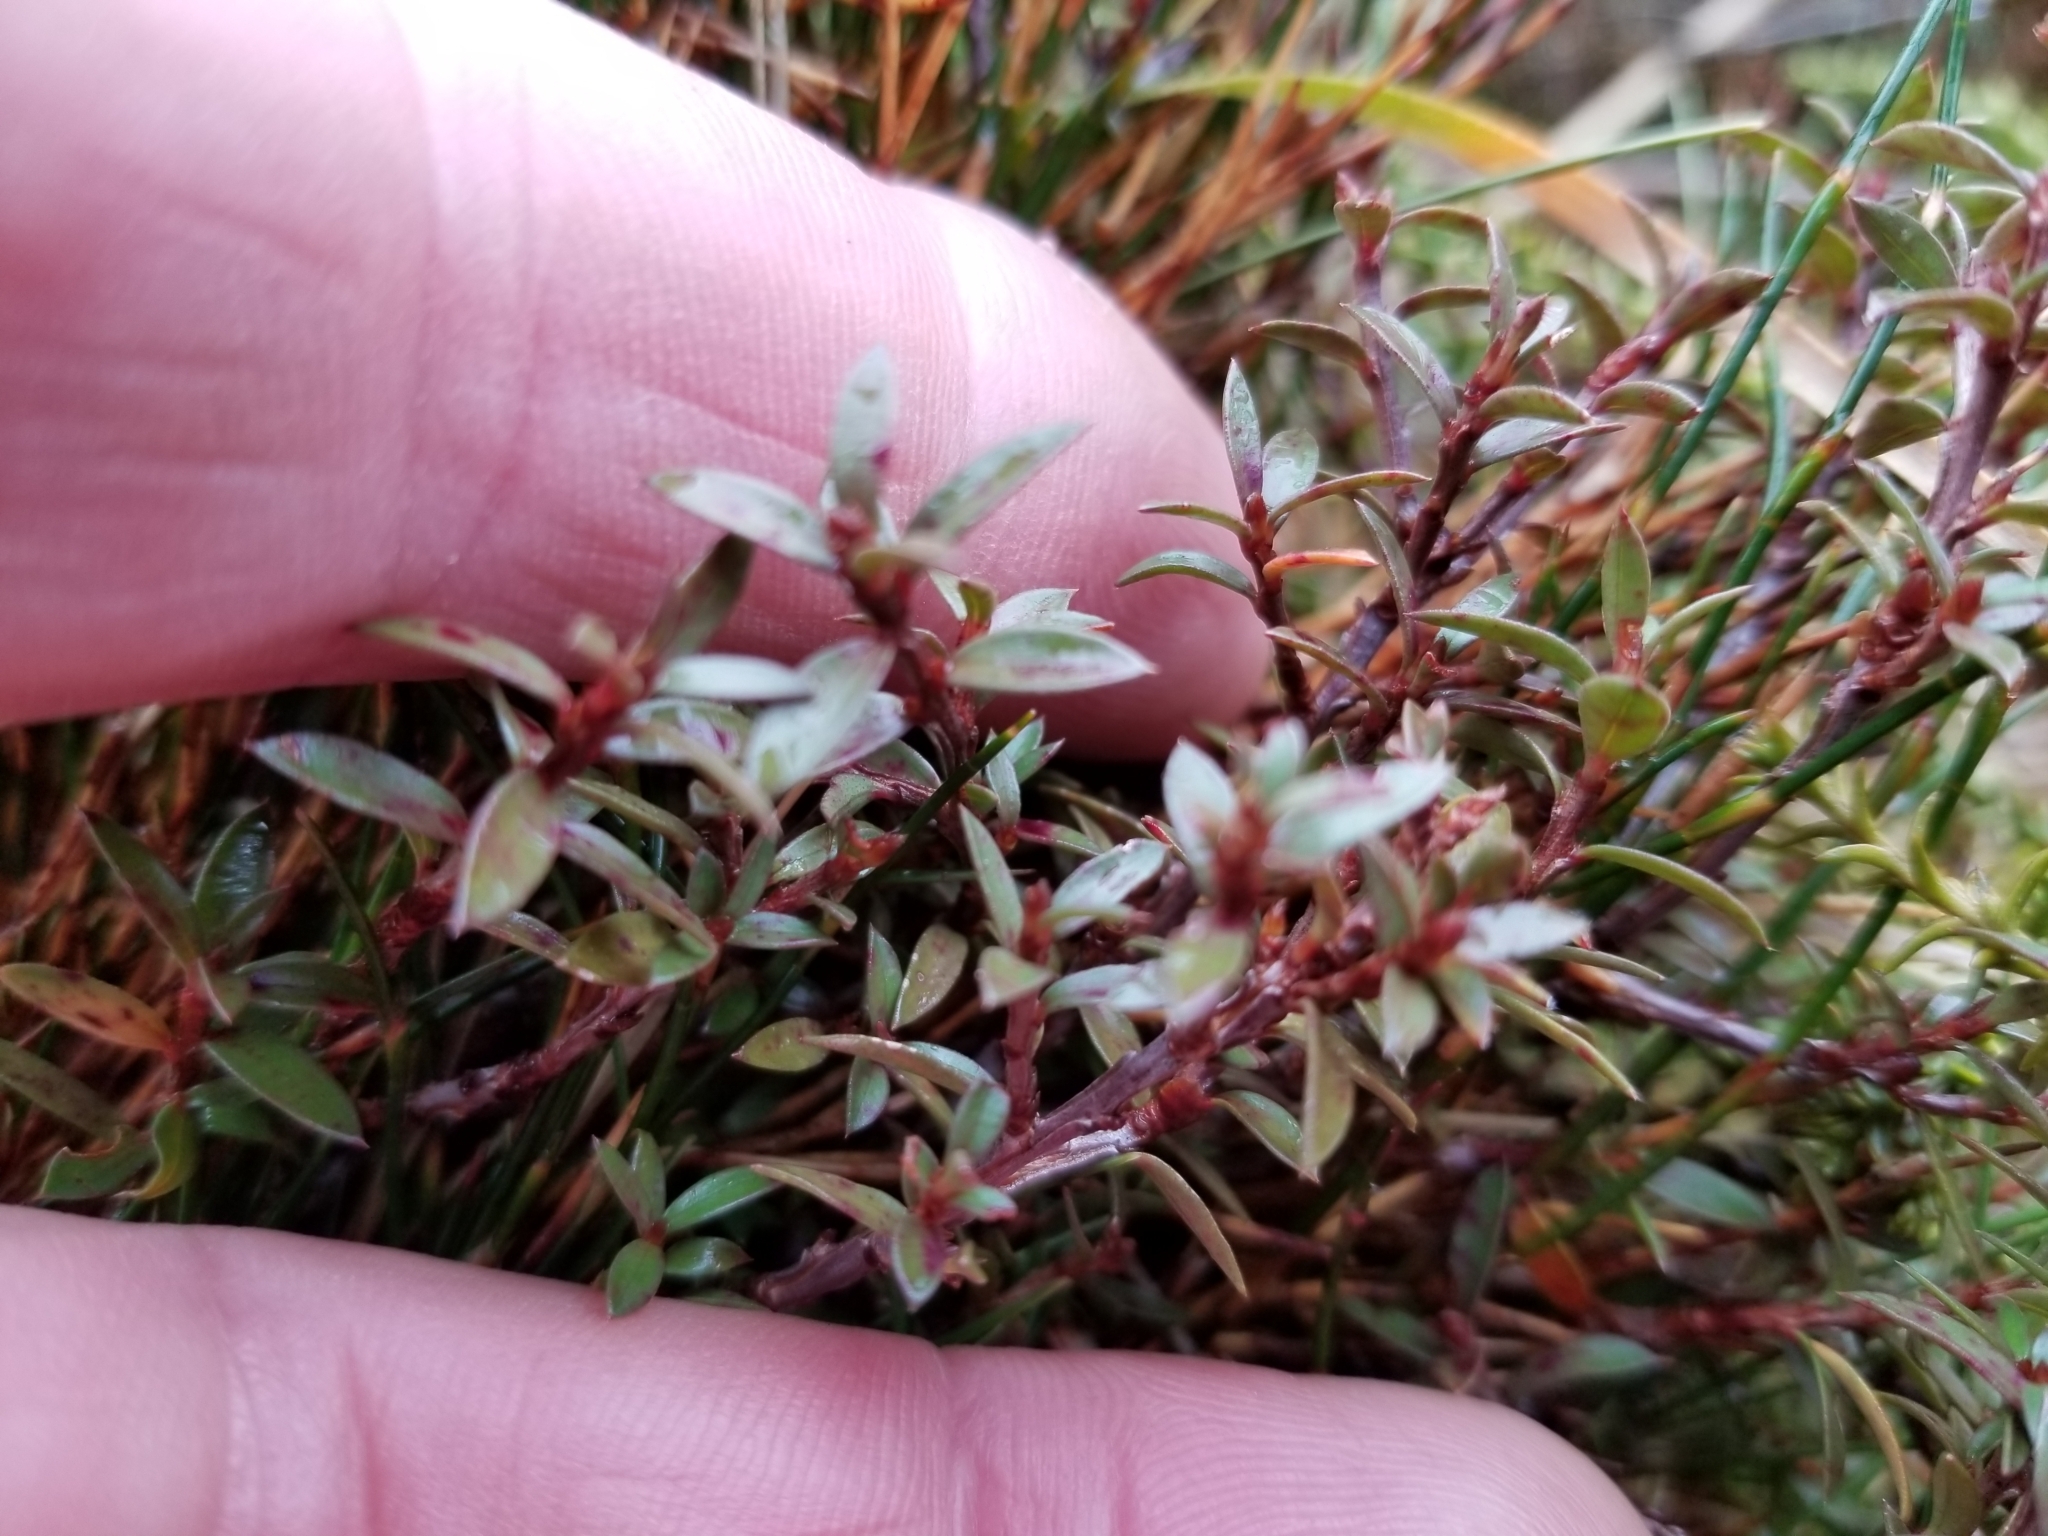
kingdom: Plantae
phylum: Tracheophyta
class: Magnoliopsida
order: Myrtales
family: Myrtaceae
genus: Leptospermum
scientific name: Leptospermum scoparium
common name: Broom tea-tree
